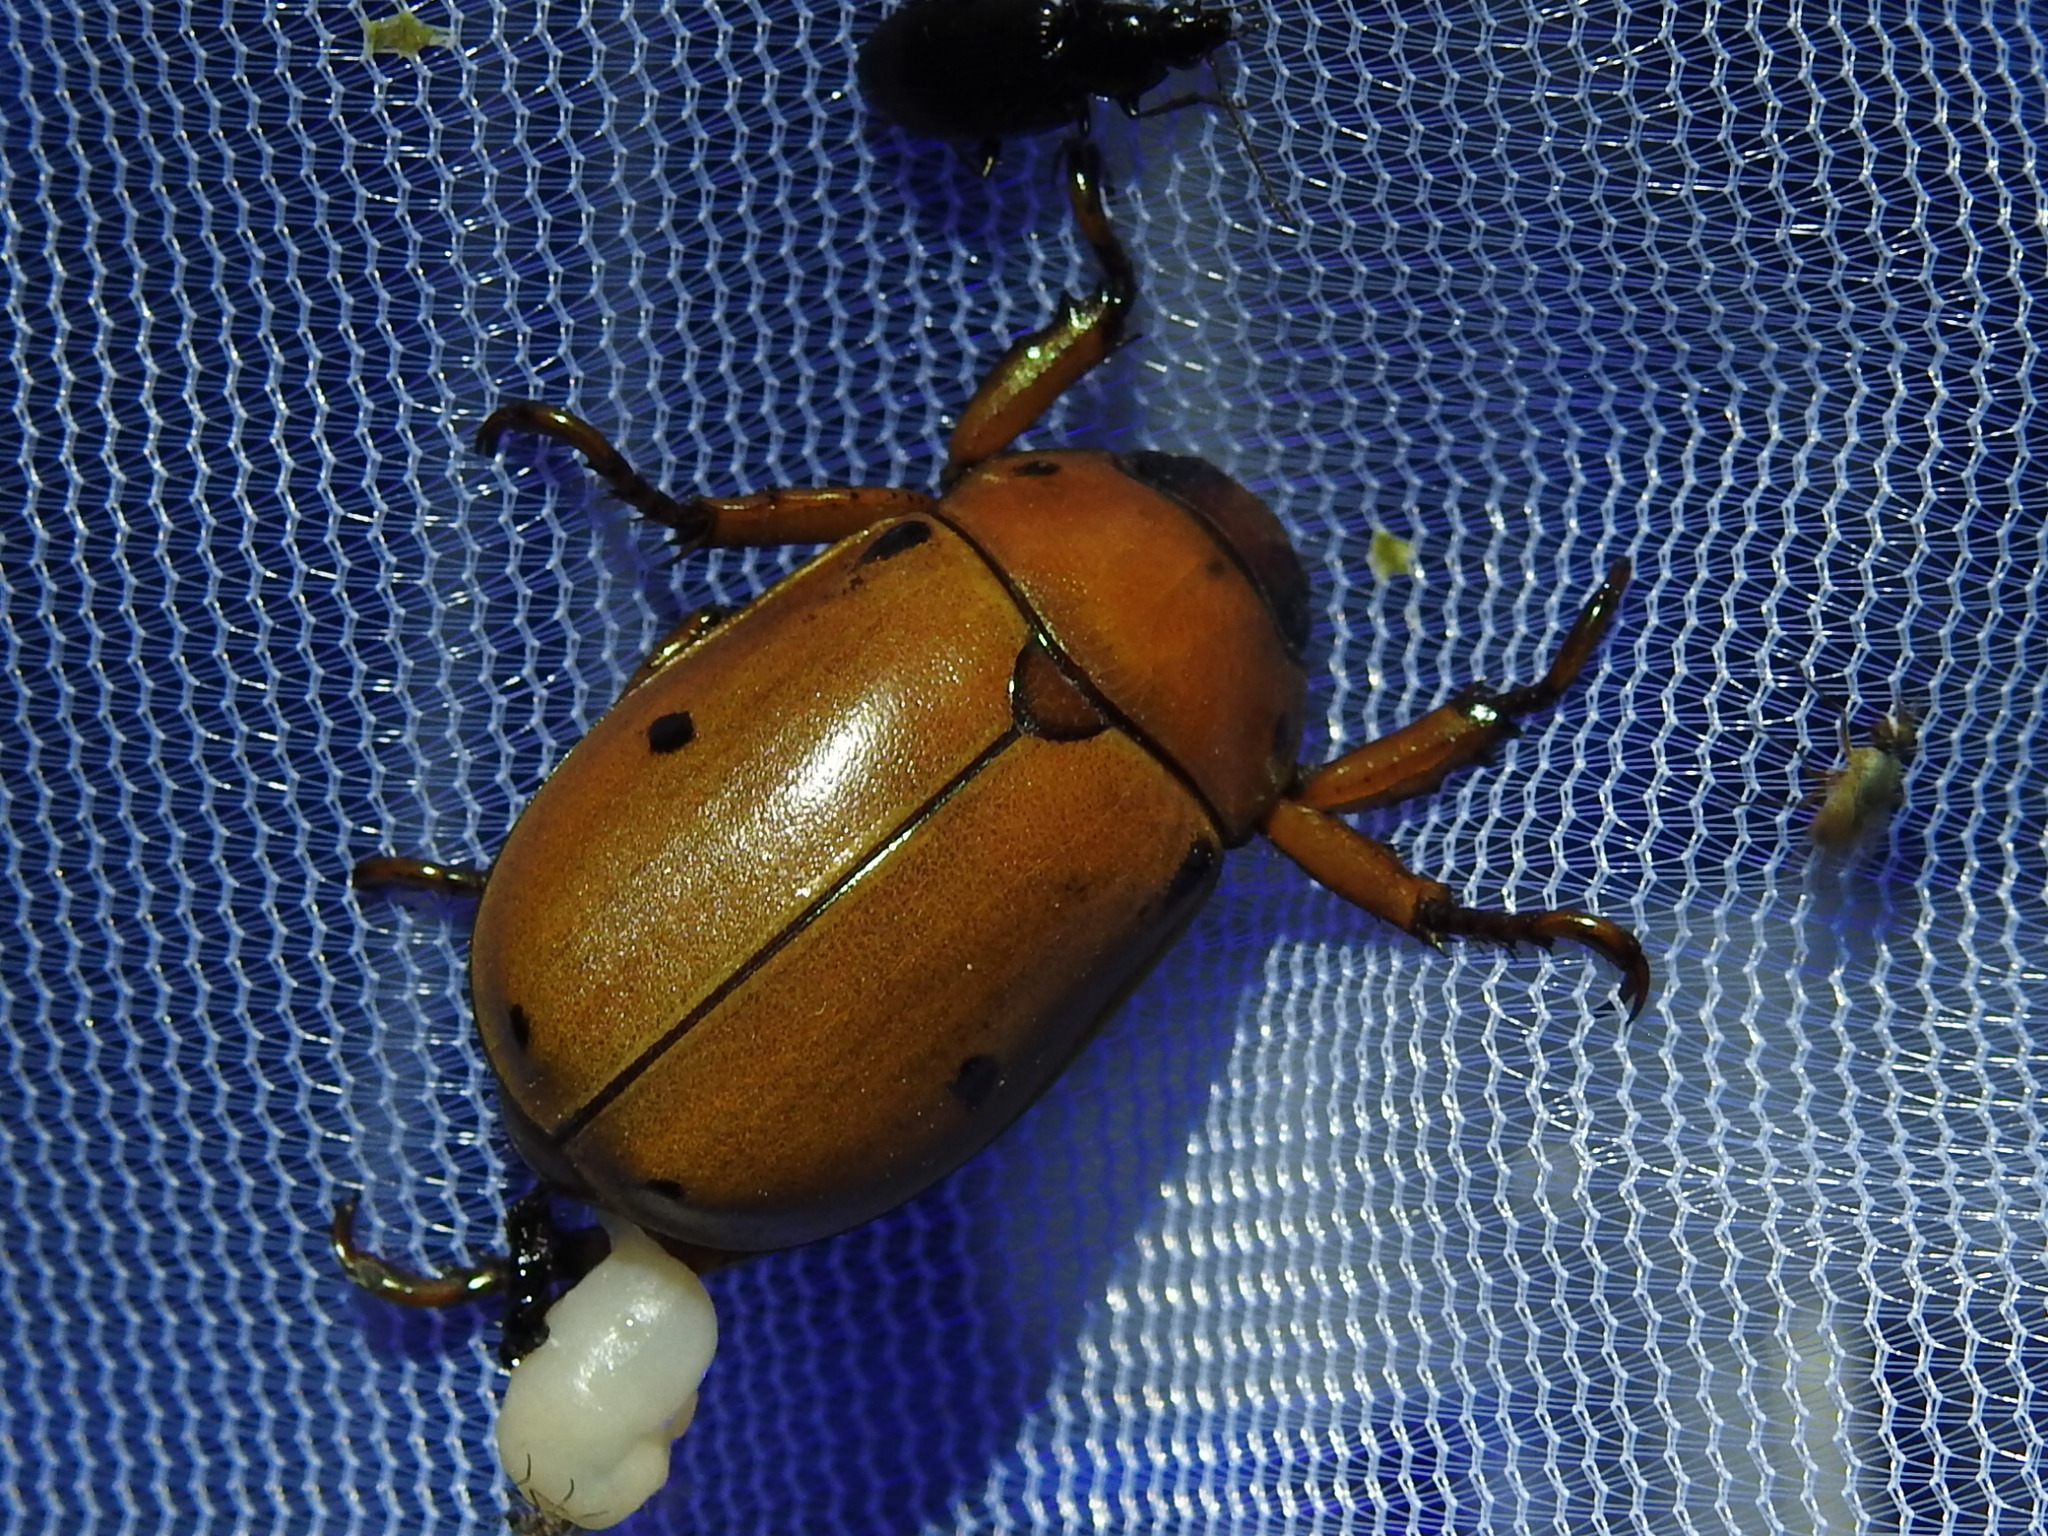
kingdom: Animalia
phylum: Arthropoda
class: Insecta
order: Coleoptera
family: Scarabaeidae
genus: Pelidnota
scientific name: Pelidnota punctata
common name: Grapevine beetle
